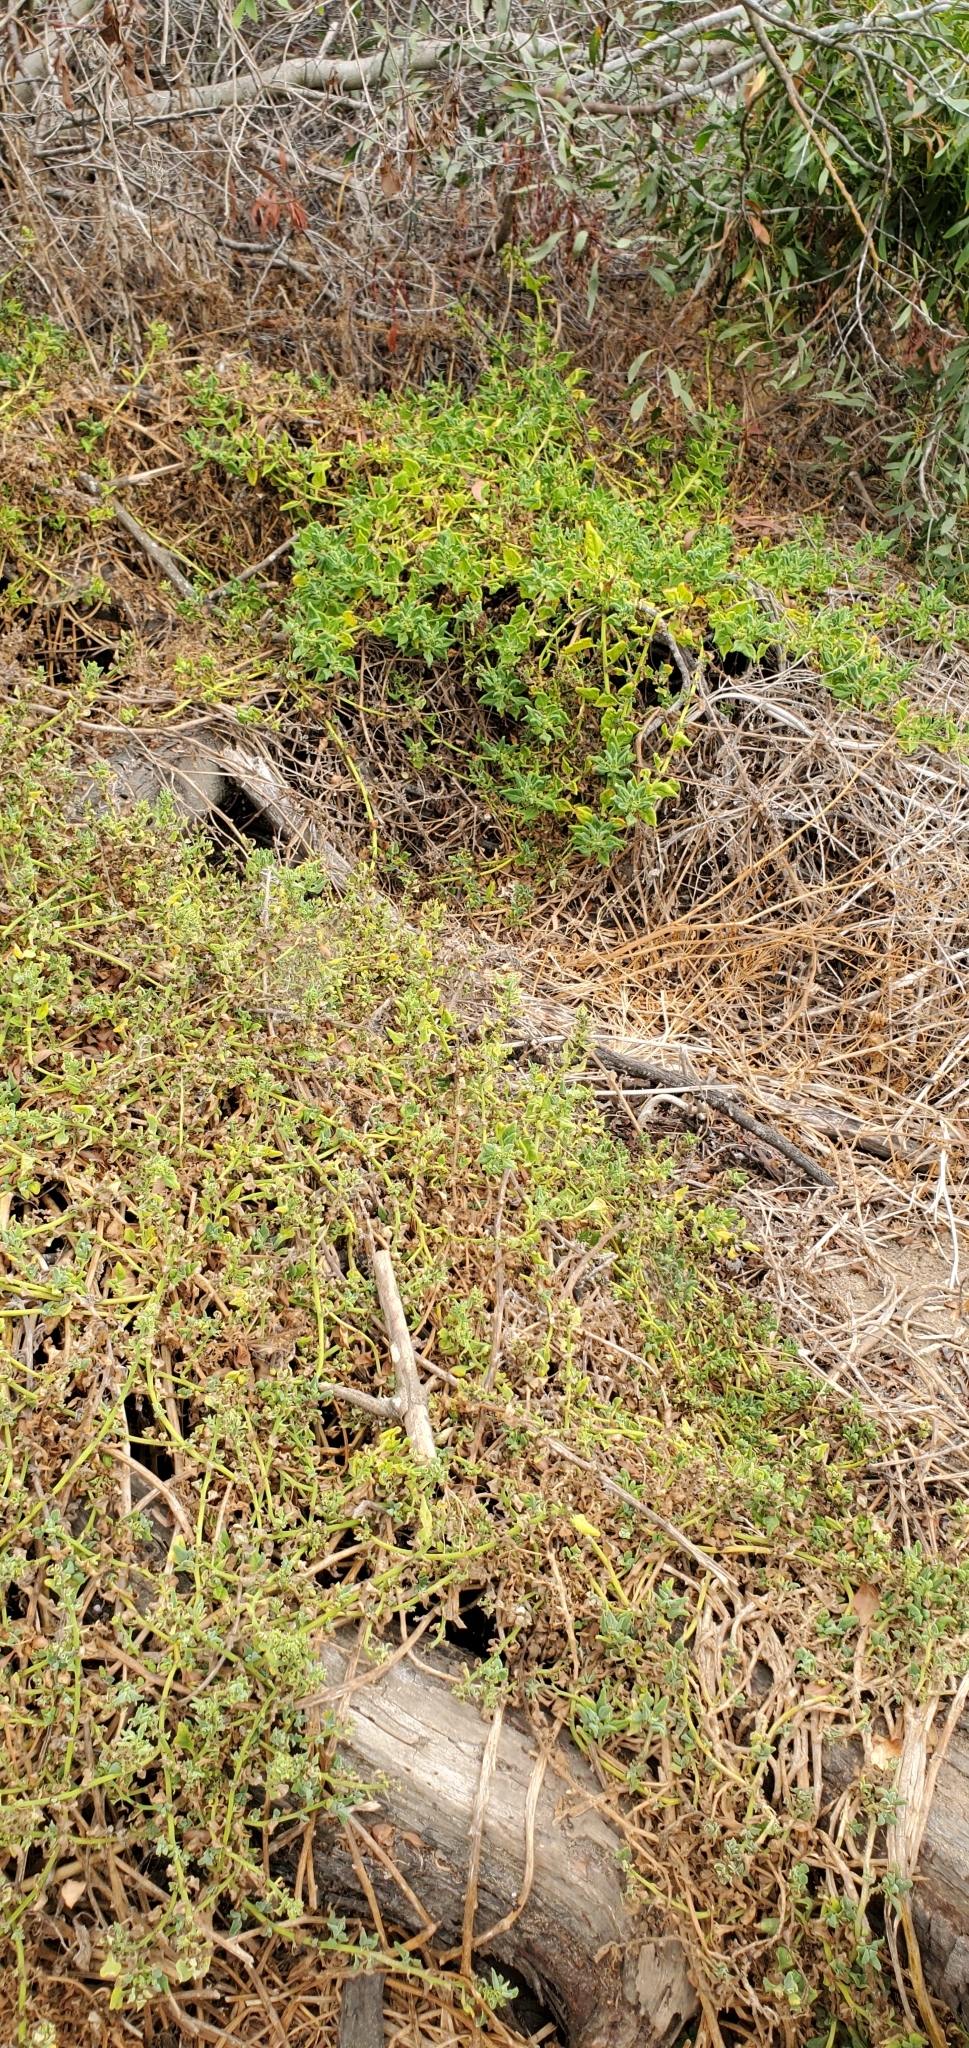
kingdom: Plantae
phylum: Tracheophyta
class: Magnoliopsida
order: Caryophyllales
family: Aizoaceae
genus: Tetragonia
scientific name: Tetragonia tetragonoides
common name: New zealand-spinach
